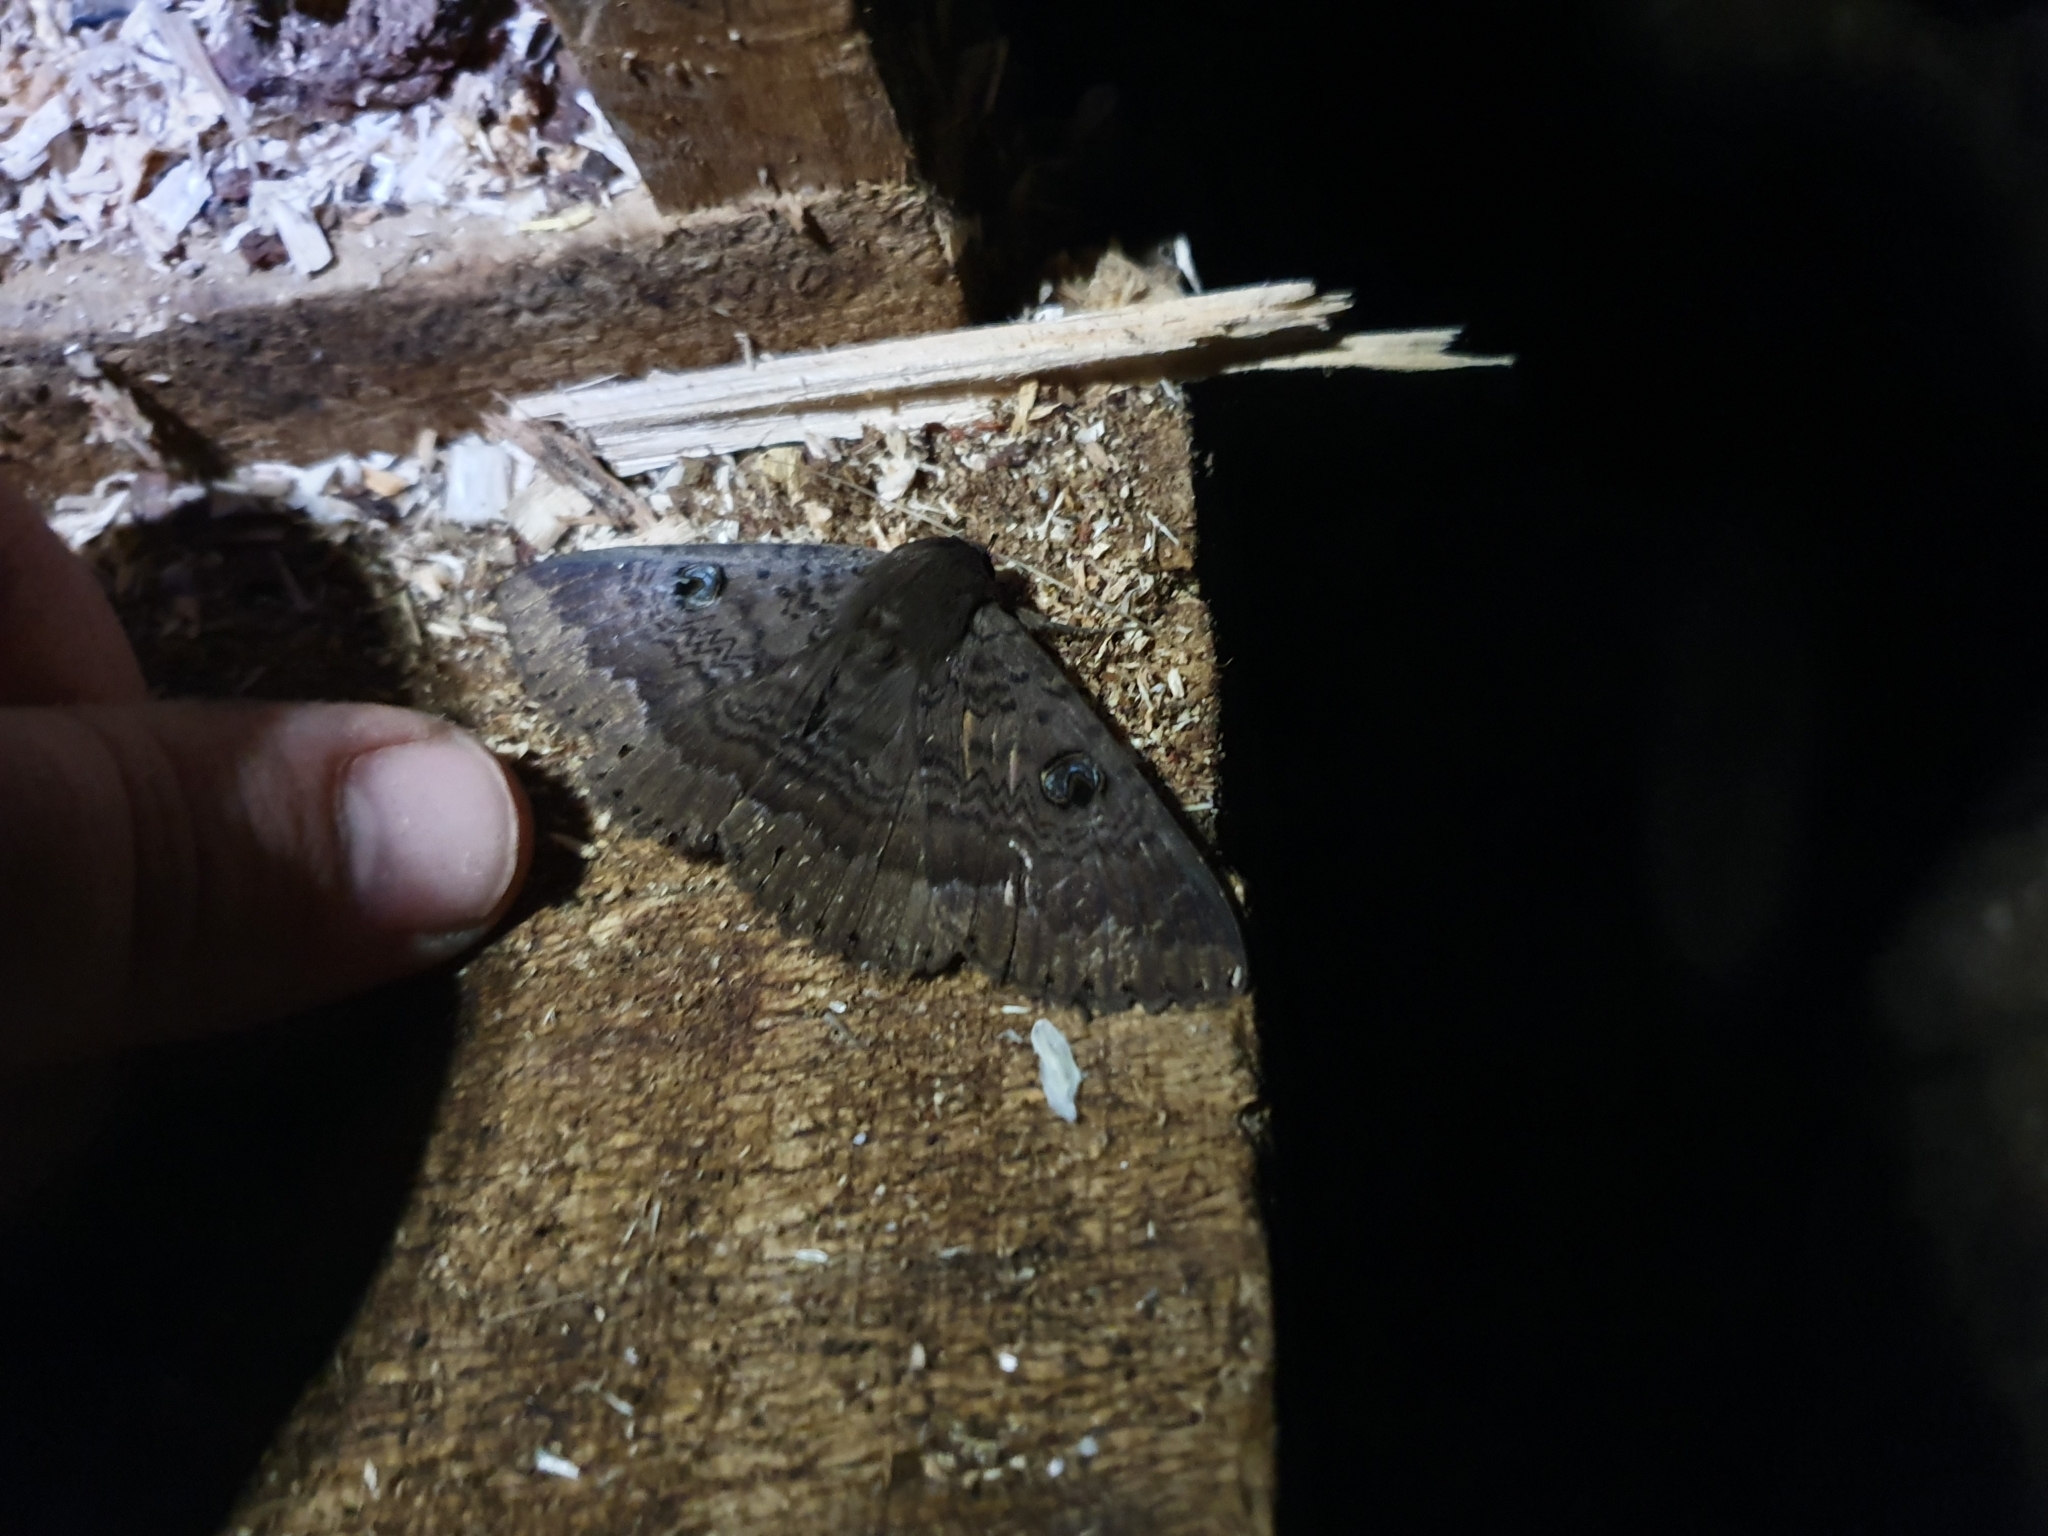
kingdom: Animalia
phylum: Arthropoda
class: Insecta
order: Lepidoptera
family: Erebidae
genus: Dasypodia
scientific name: Dasypodia cymatodes
